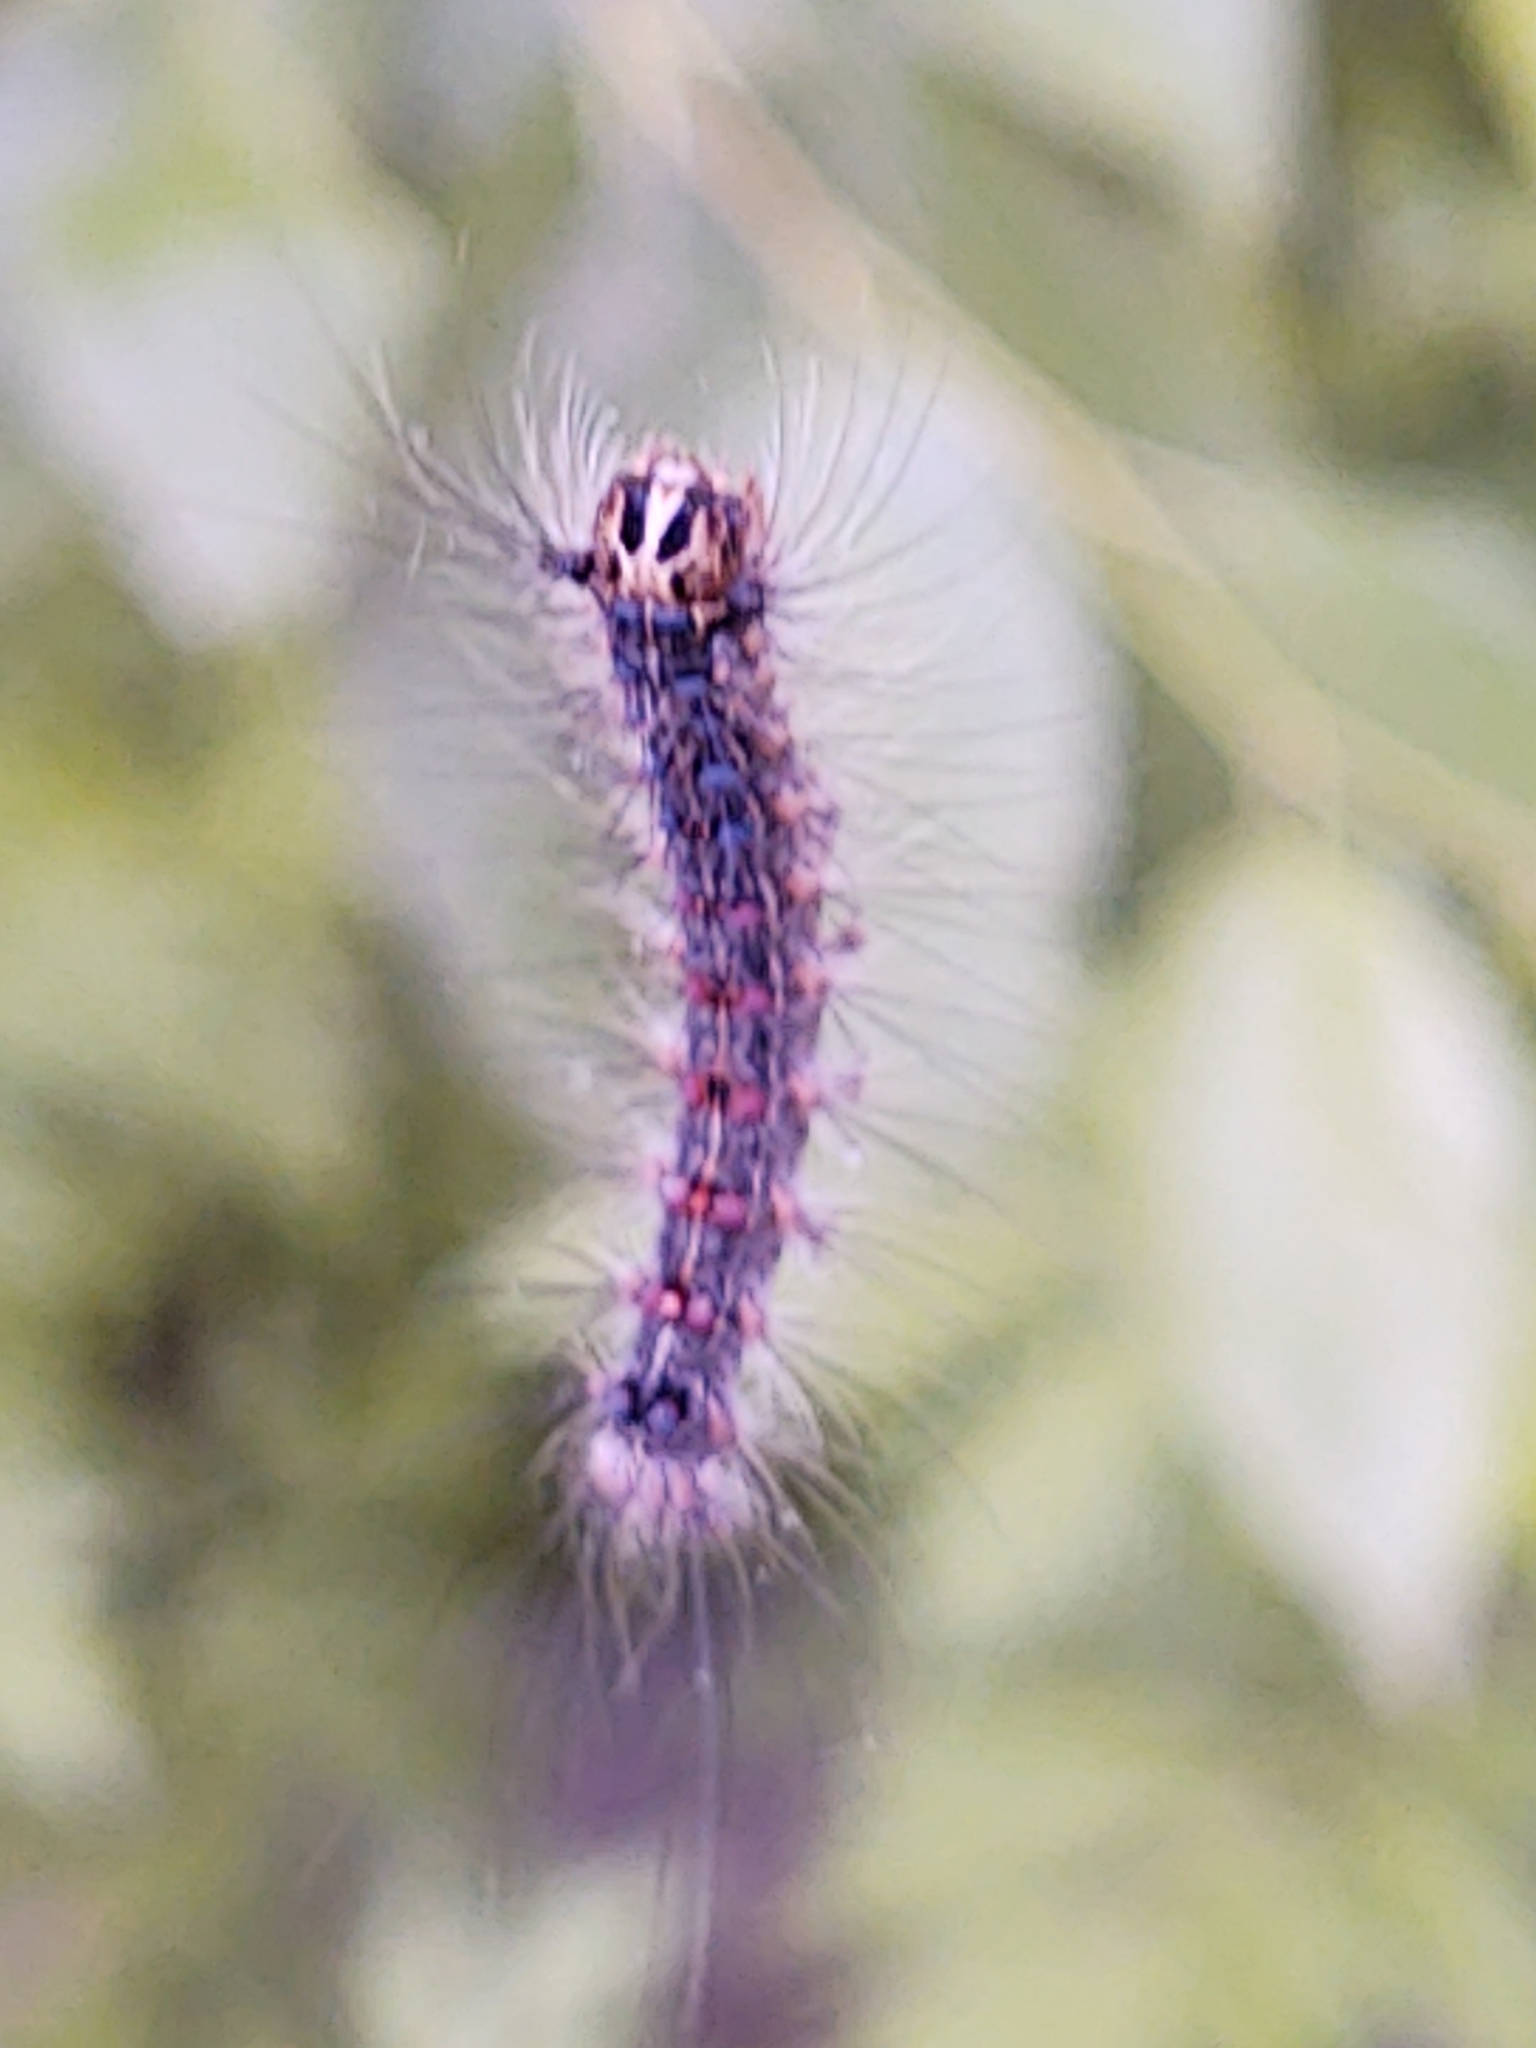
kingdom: Animalia
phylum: Arthropoda
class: Insecta
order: Lepidoptera
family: Erebidae
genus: Lymantria
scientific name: Lymantria dispar
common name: Gypsy moth
